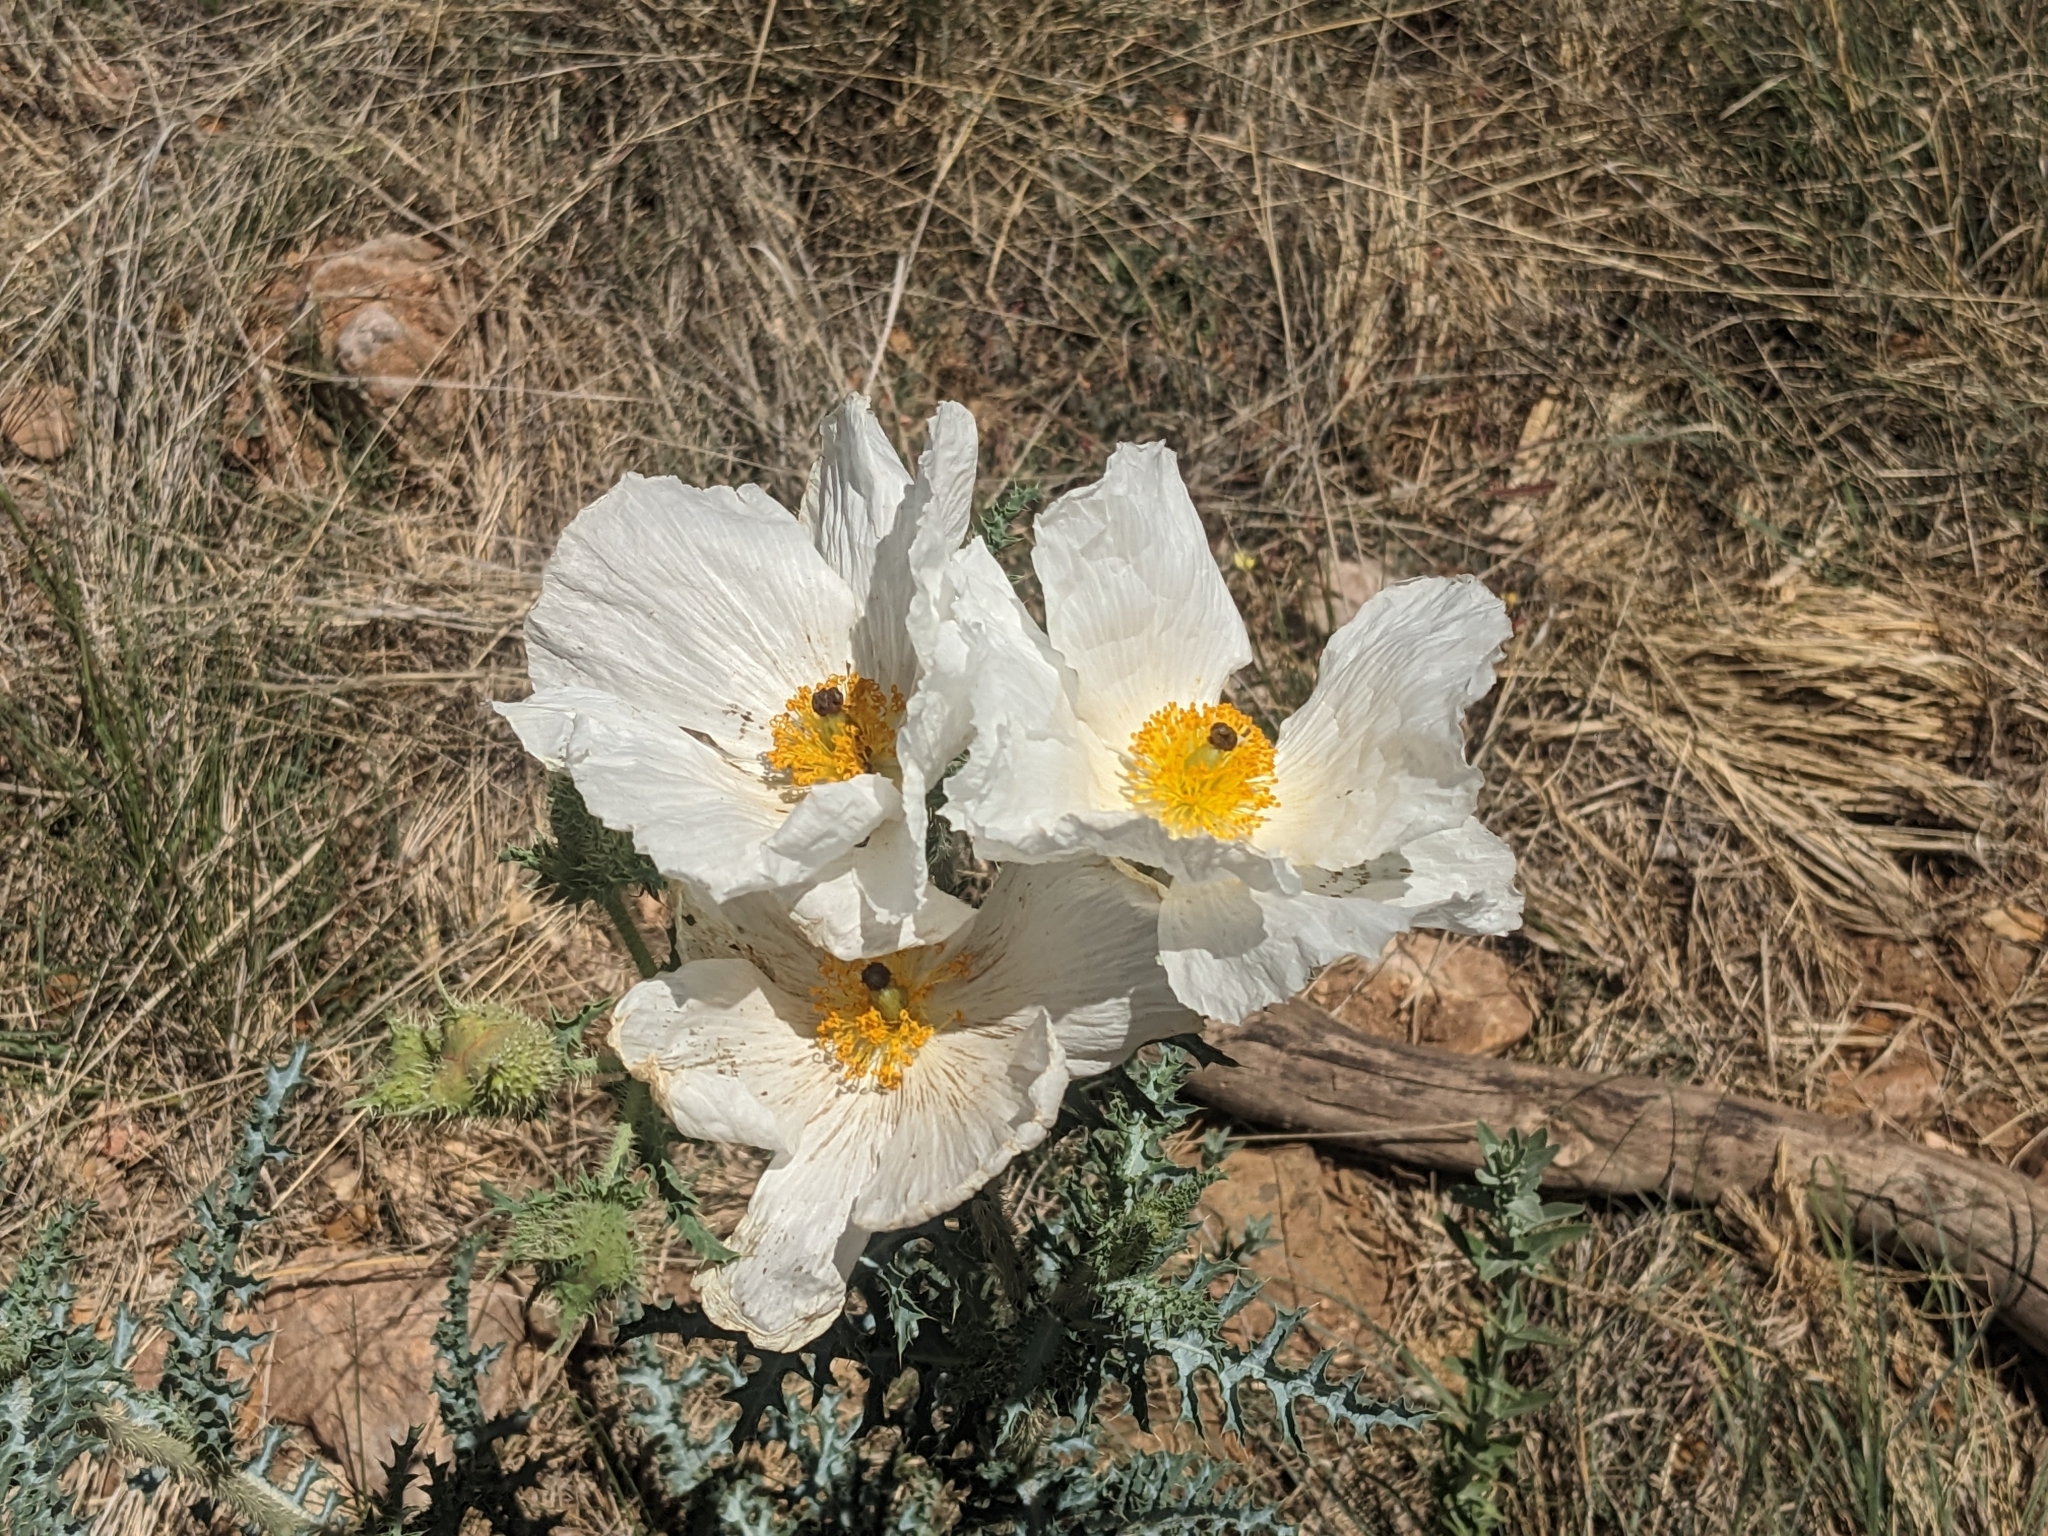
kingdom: Plantae
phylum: Tracheophyta
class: Magnoliopsida
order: Ranunculales
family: Papaveraceae
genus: Argemone
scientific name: Argemone pleiacantha
